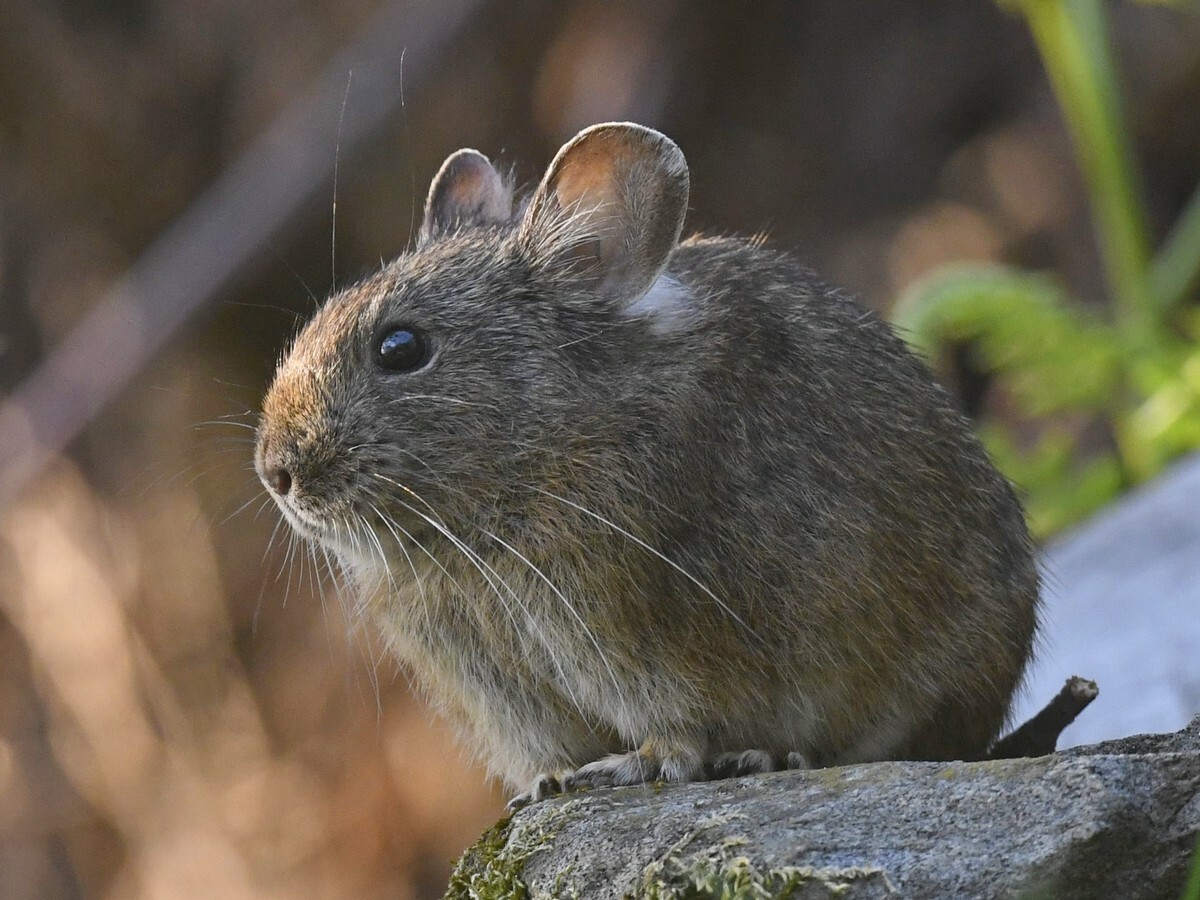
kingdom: Animalia
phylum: Chordata
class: Mammalia
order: Lagomorpha
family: Ochotonidae
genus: Ochotona
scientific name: Ochotona roylii
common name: Royle s pika
